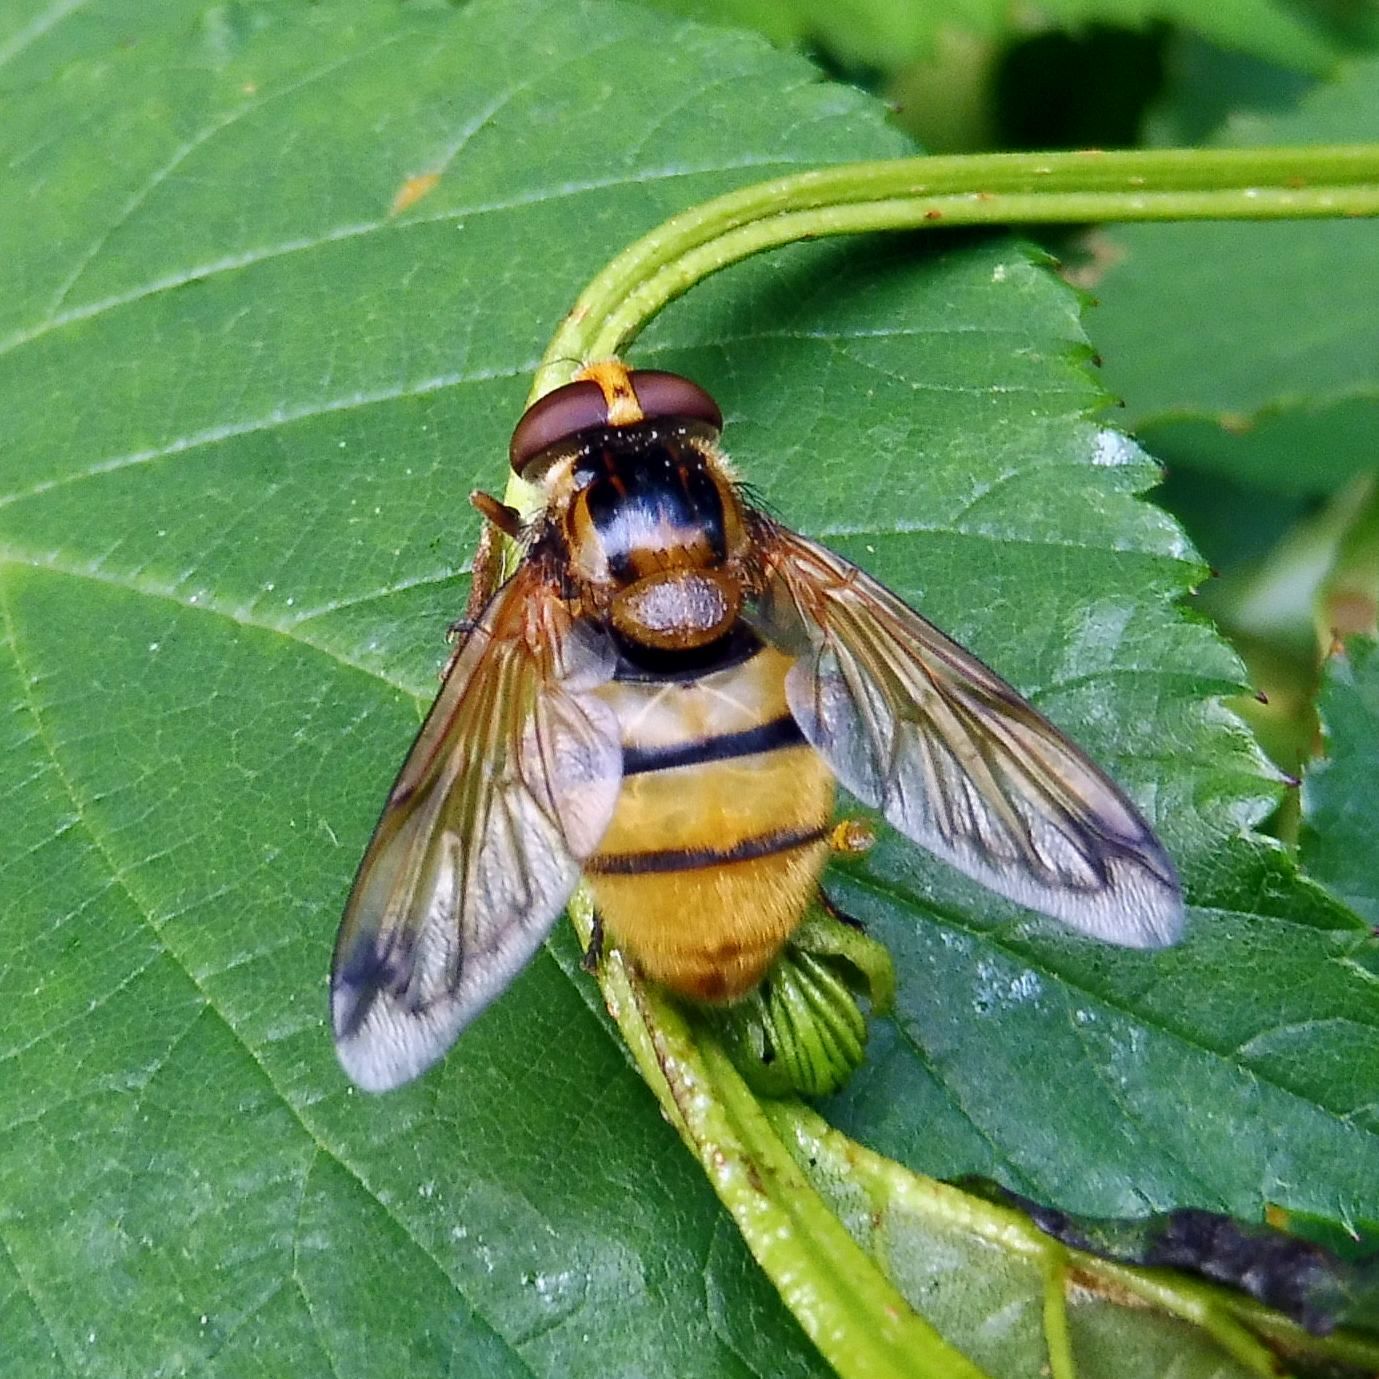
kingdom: Animalia
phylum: Arthropoda
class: Insecta
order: Diptera
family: Syrphidae
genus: Volucella
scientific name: Volucella inanis
